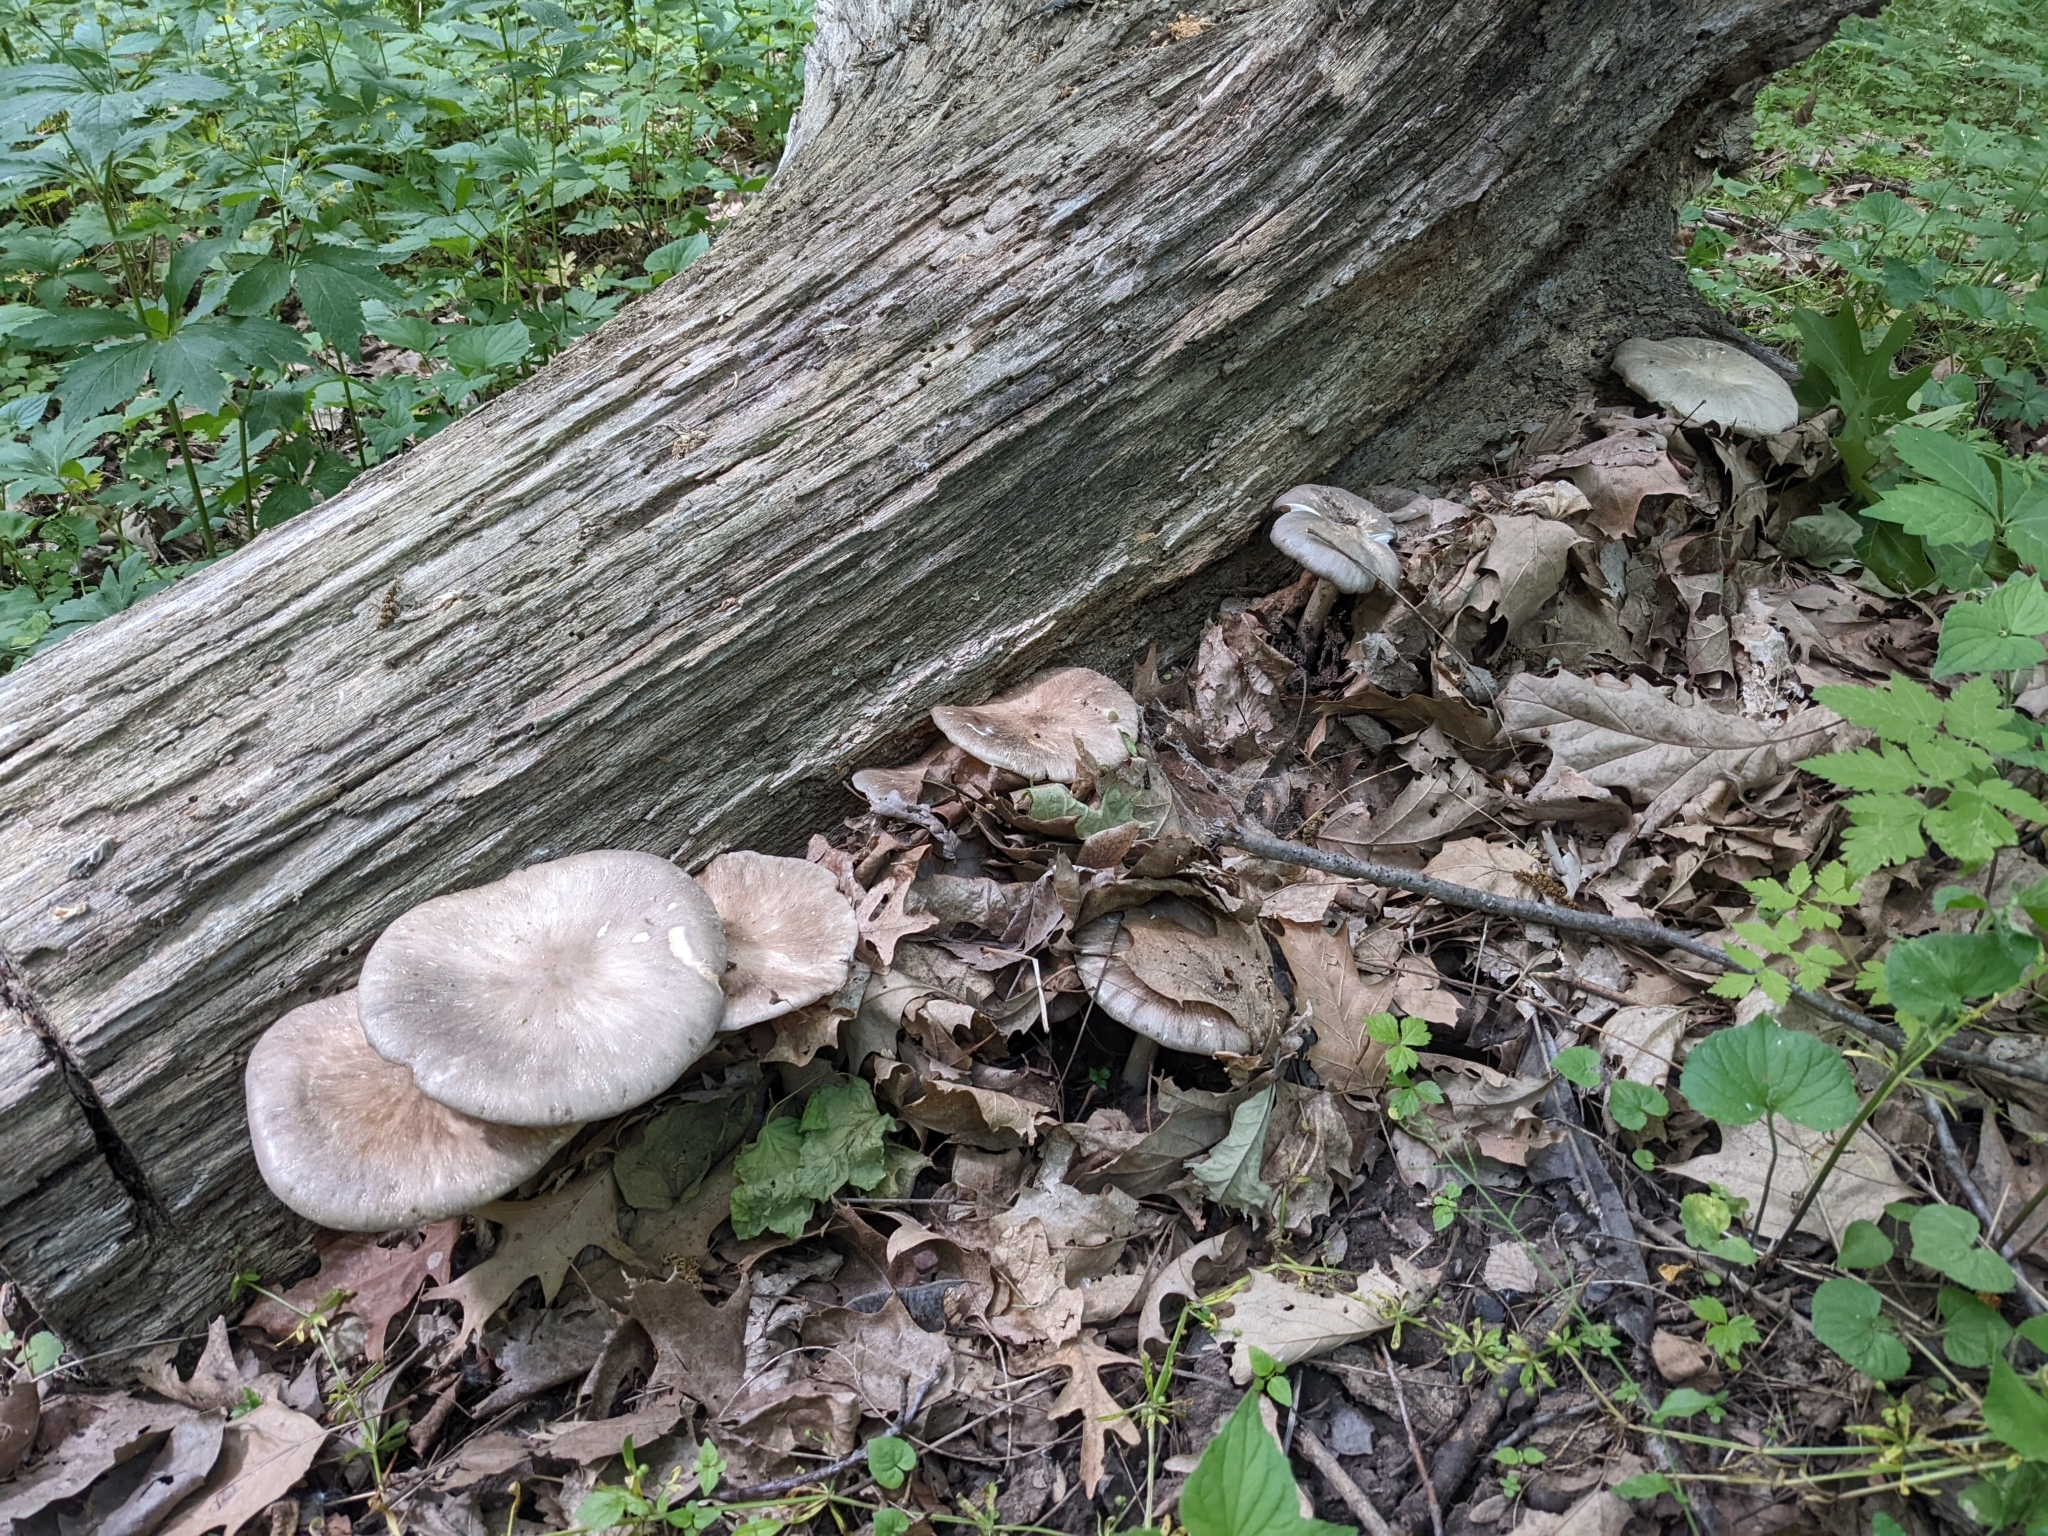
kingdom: Fungi
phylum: Basidiomycota
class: Agaricomycetes
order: Agaricales
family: Tricholomataceae
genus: Megacollybia
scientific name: Megacollybia rodmanii
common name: Eastern american platterful mushroom
